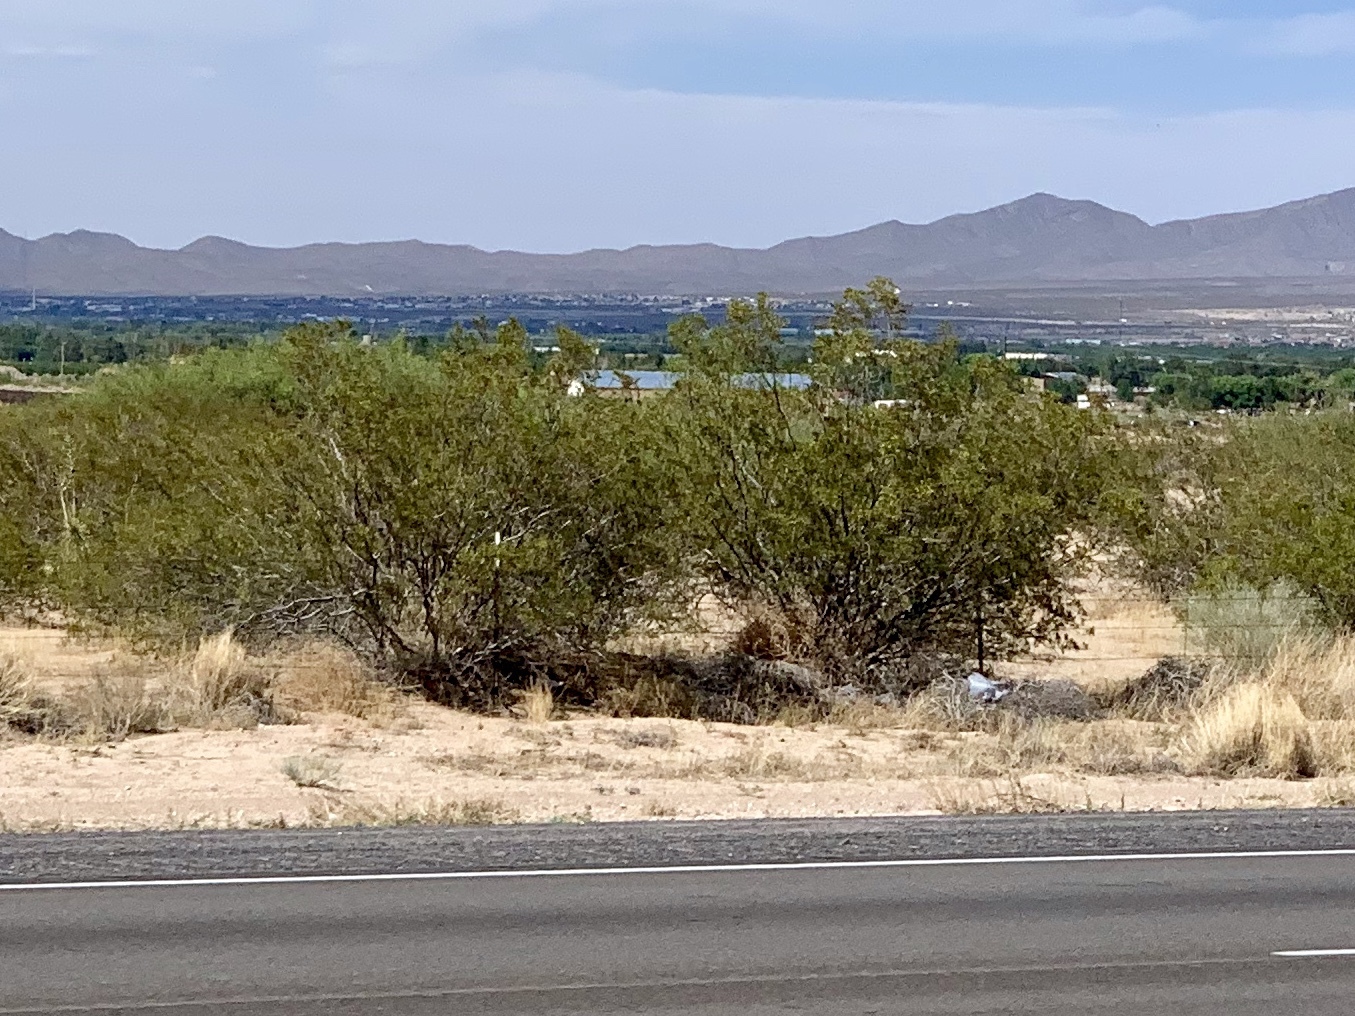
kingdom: Plantae
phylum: Tracheophyta
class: Magnoliopsida
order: Zygophyllales
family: Zygophyllaceae
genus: Larrea
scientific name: Larrea tridentata
